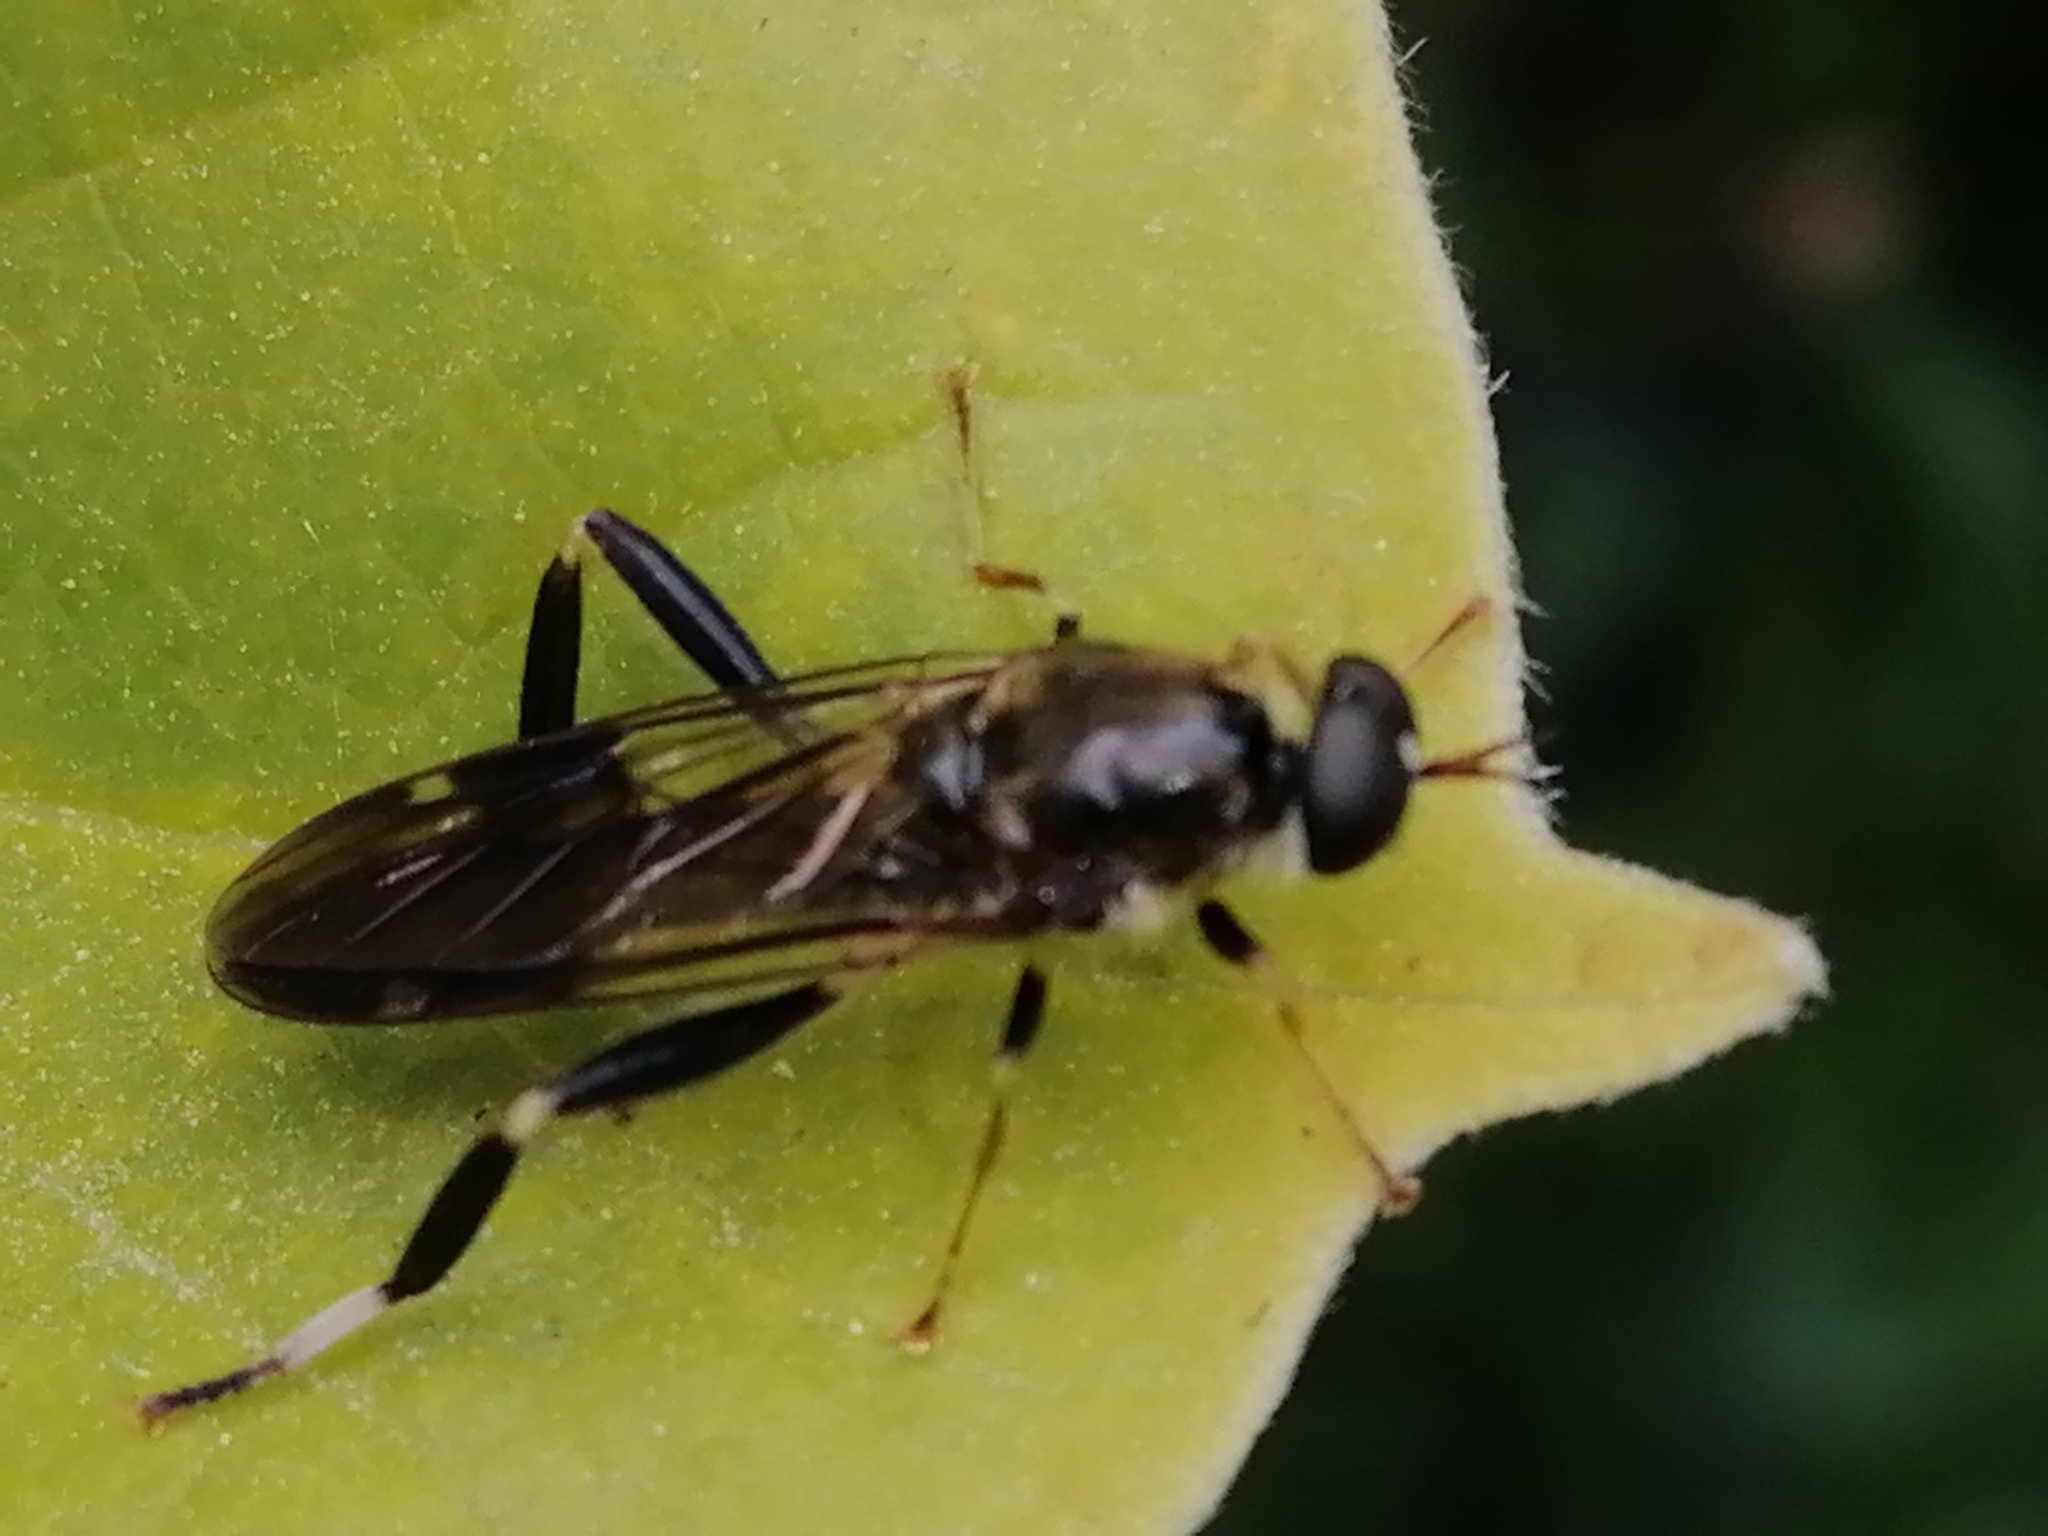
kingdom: Animalia
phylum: Arthropoda
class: Insecta
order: Diptera
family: Stratiomyidae
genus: Exaireta
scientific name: Exaireta spinigera
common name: Blue soldier fly
